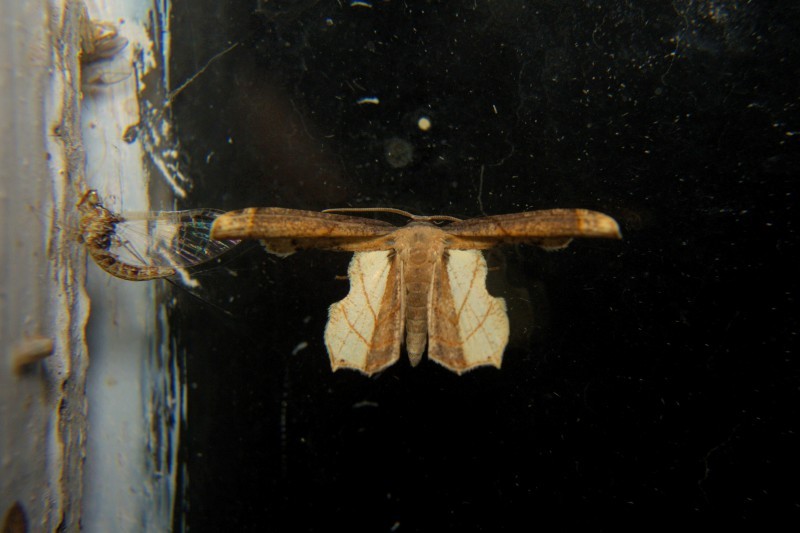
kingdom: Animalia
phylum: Arthropoda
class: Insecta
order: Lepidoptera
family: Uraniidae
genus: Warreniplema
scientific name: Warreniplema fumicosta
